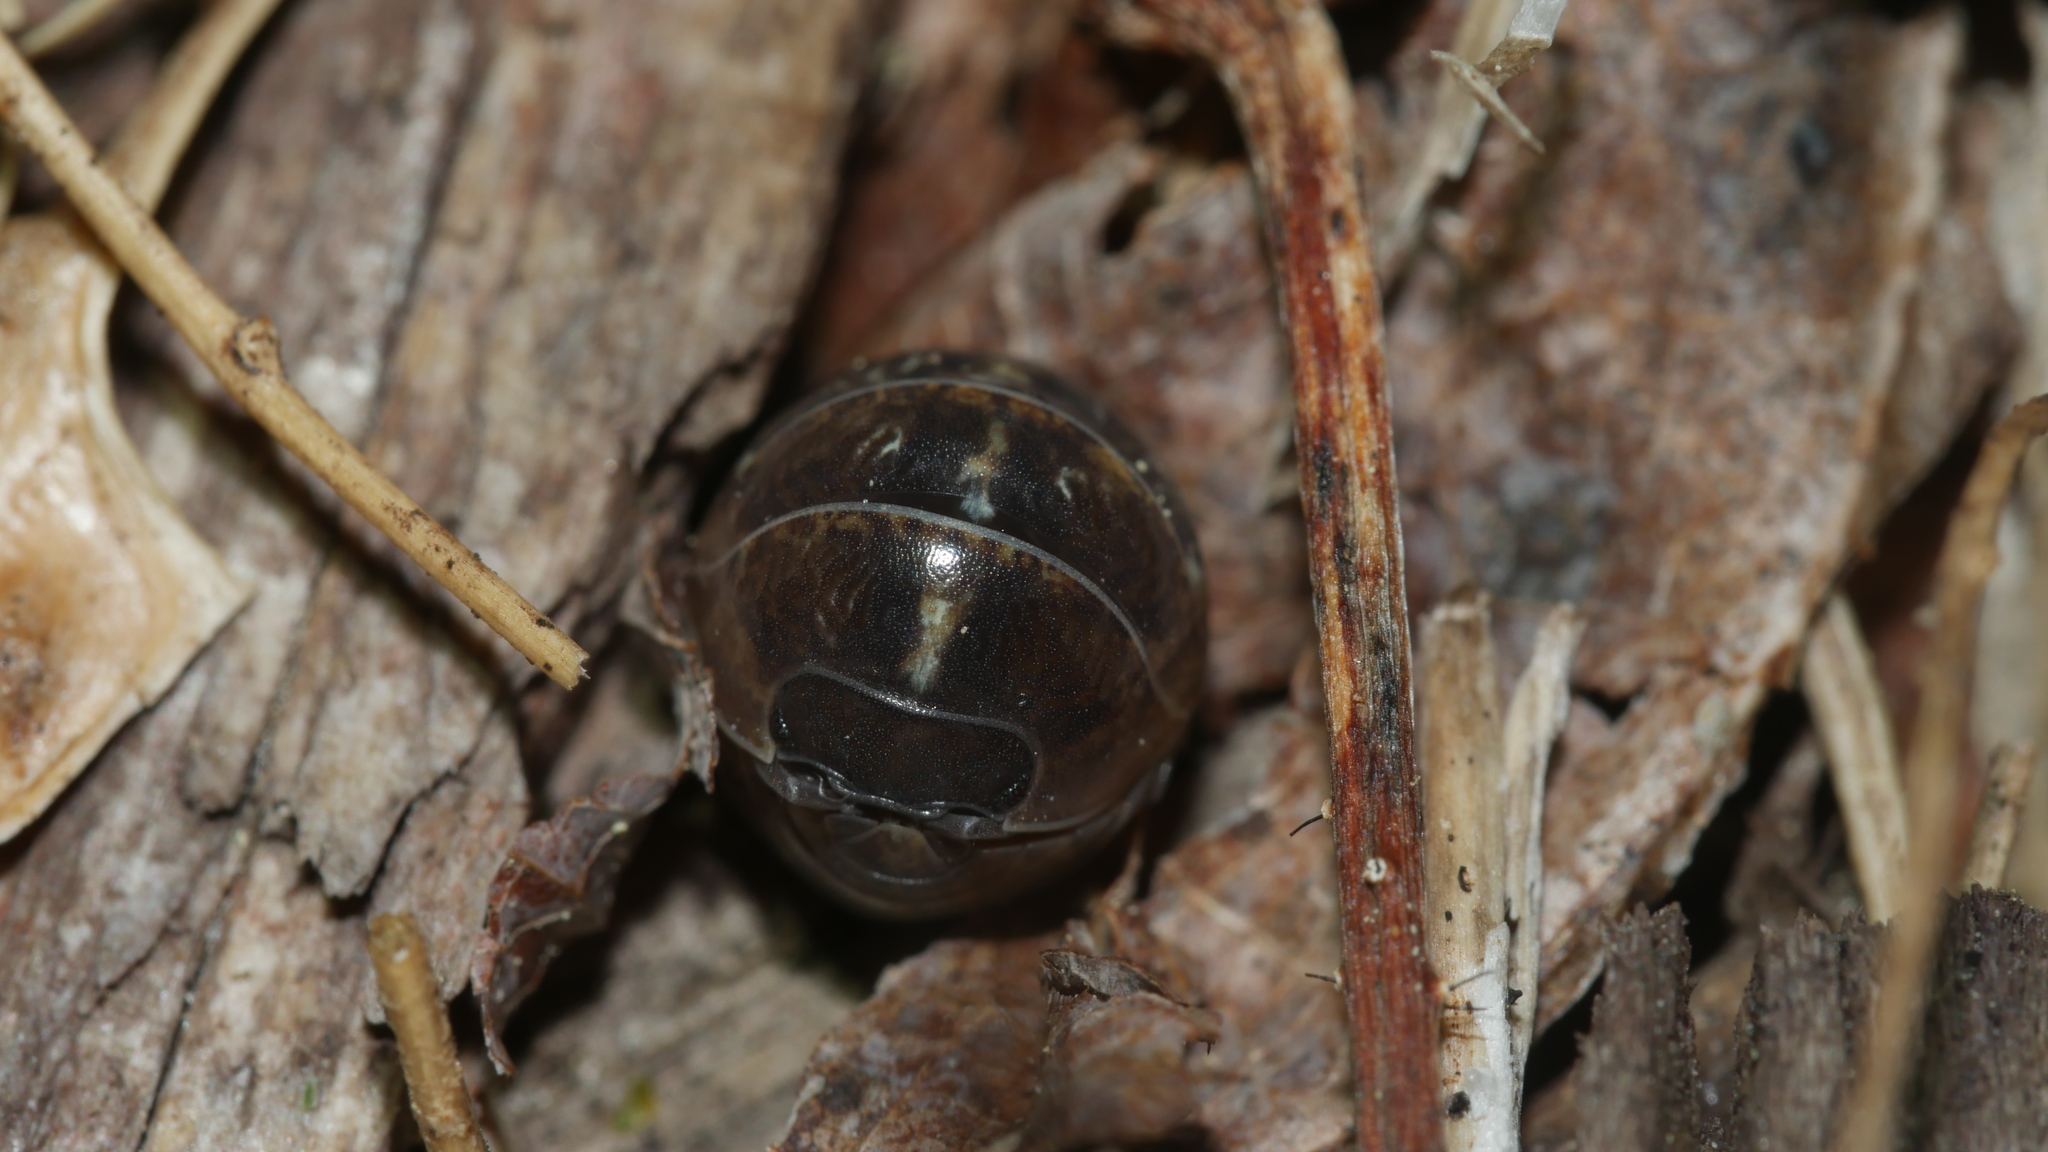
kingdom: Animalia
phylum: Arthropoda
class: Malacostraca
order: Isopoda
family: Armadillidiidae
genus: Armadillidium
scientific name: Armadillidium vulgare
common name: Common pill woodlouse
